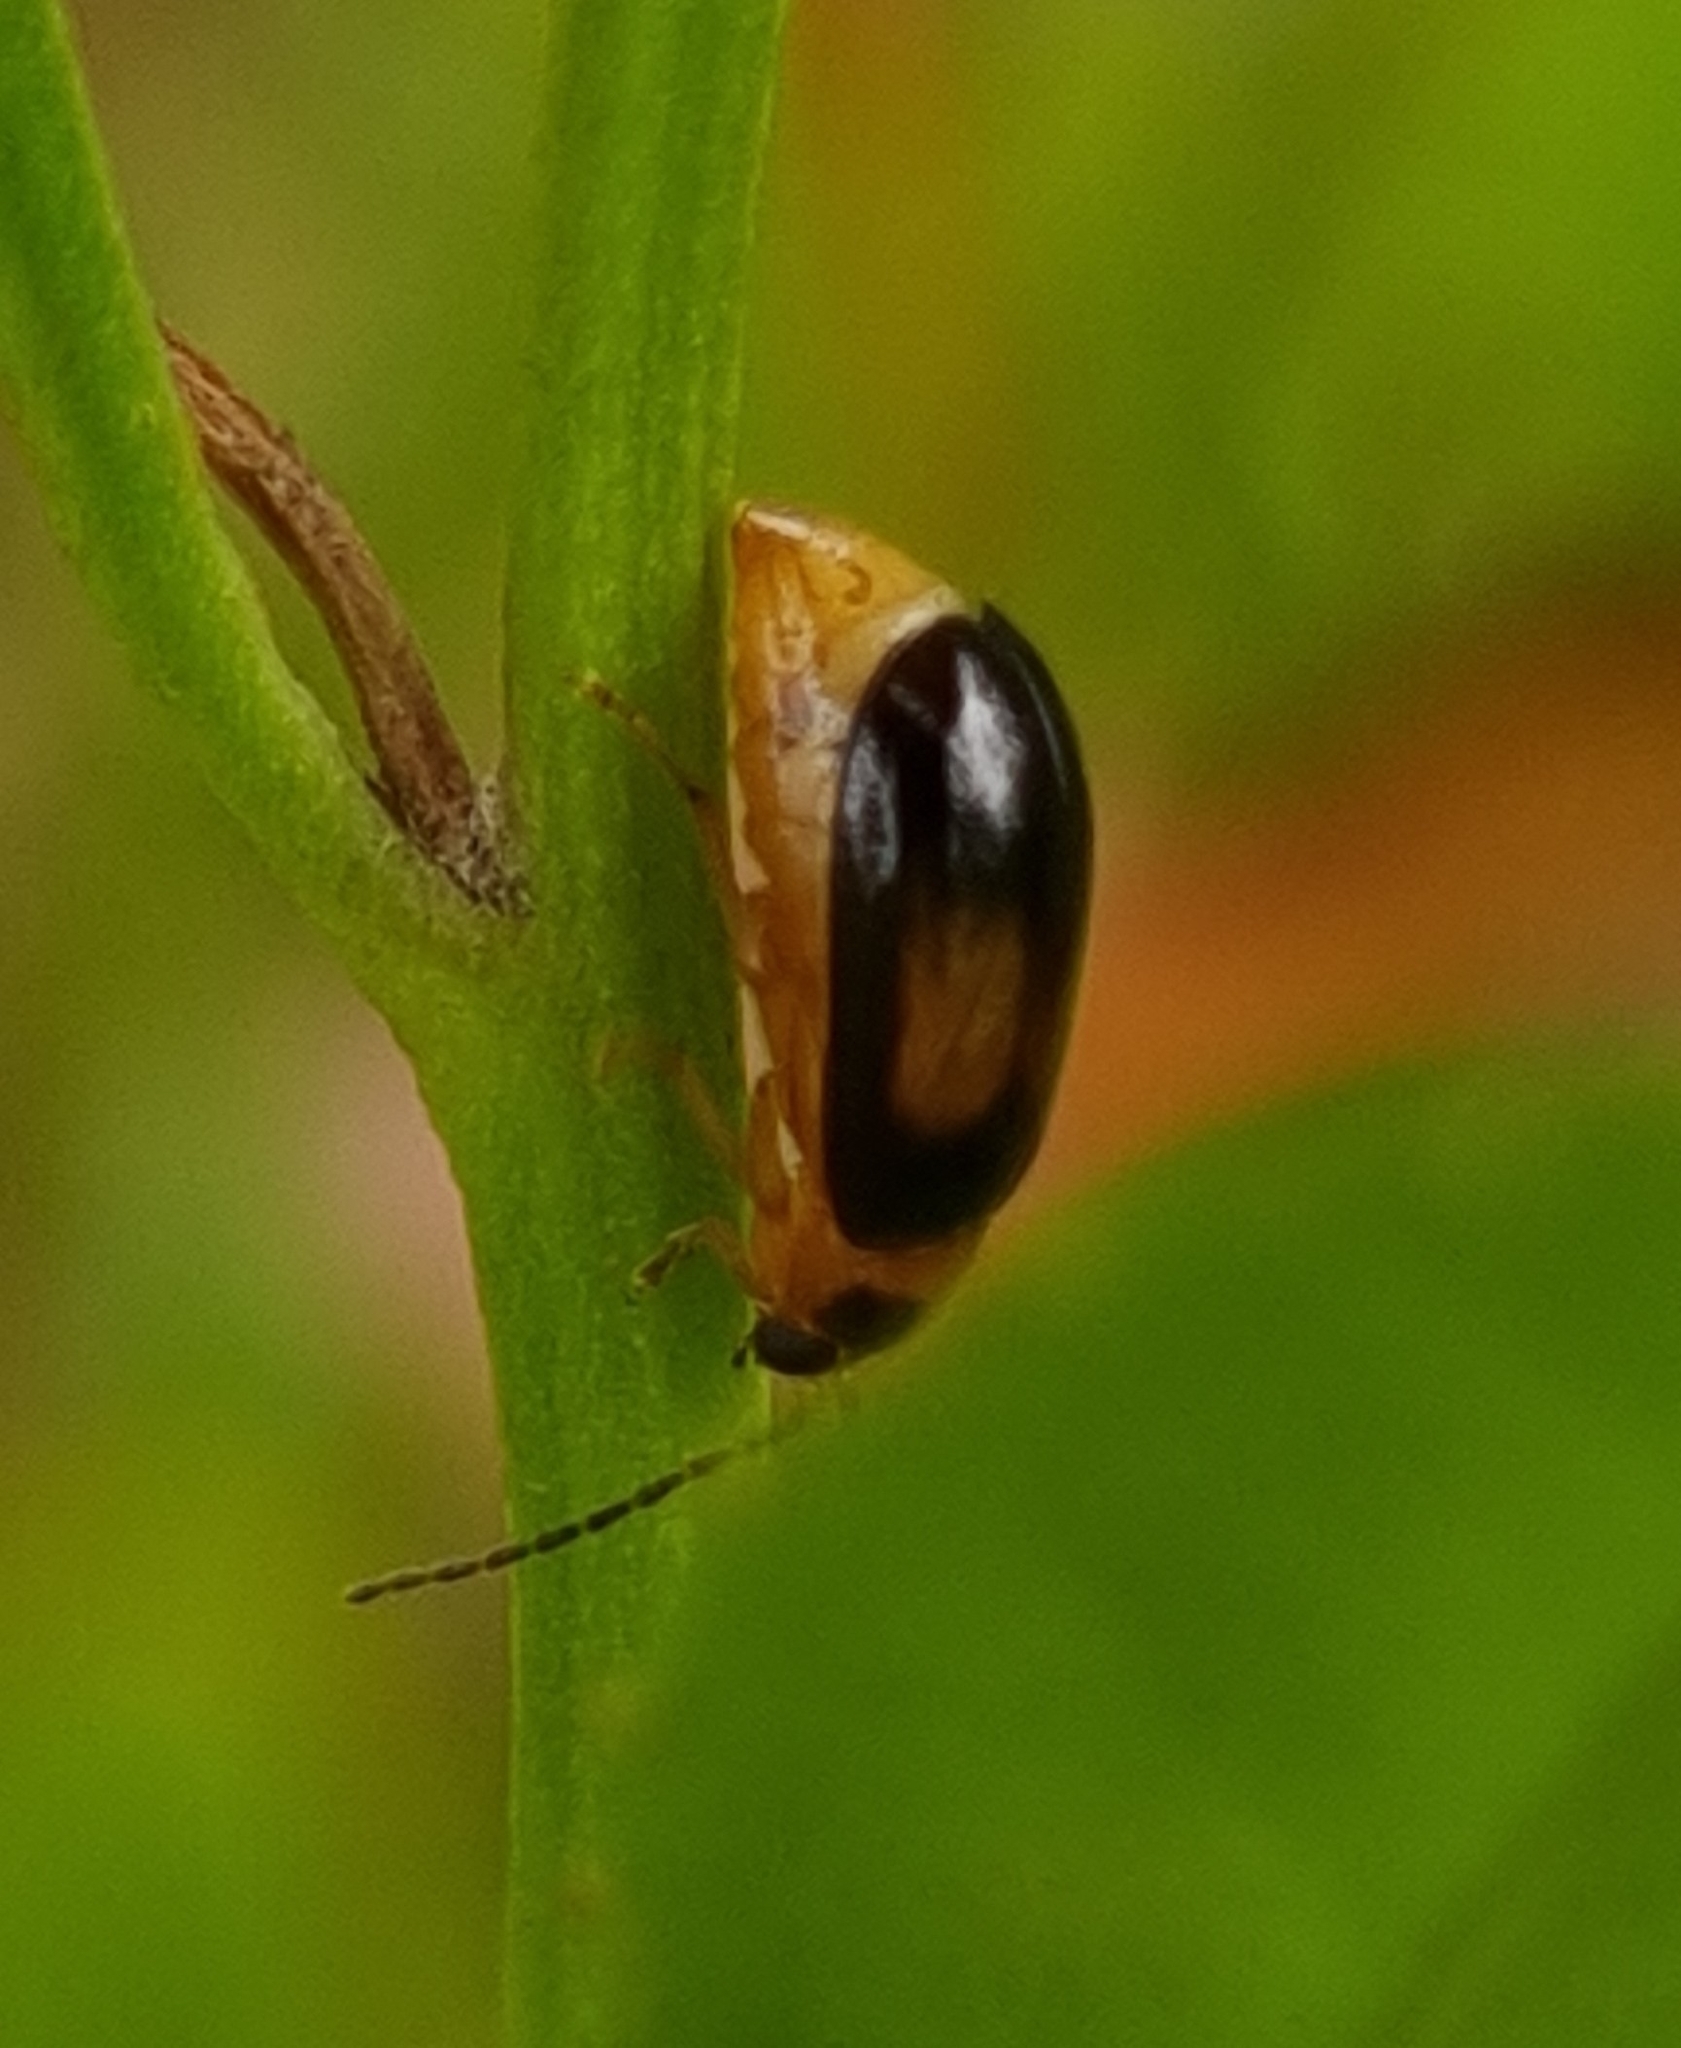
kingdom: Animalia
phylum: Arthropoda
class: Insecta
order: Coleoptera
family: Chrysomelidae
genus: Monolepta
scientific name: Monolepta
